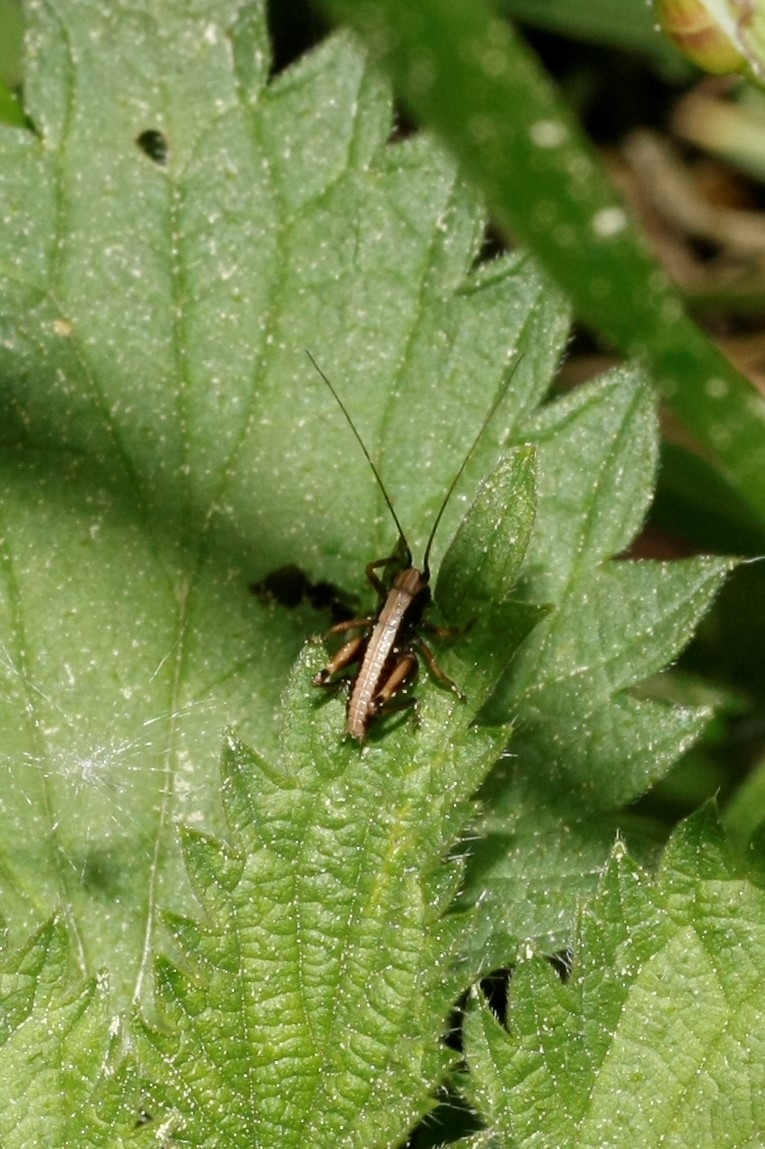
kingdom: Animalia
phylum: Arthropoda
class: Insecta
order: Orthoptera
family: Tettigoniidae
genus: Pholidoptera
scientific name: Pholidoptera griseoaptera
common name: Dark bush-cricket
